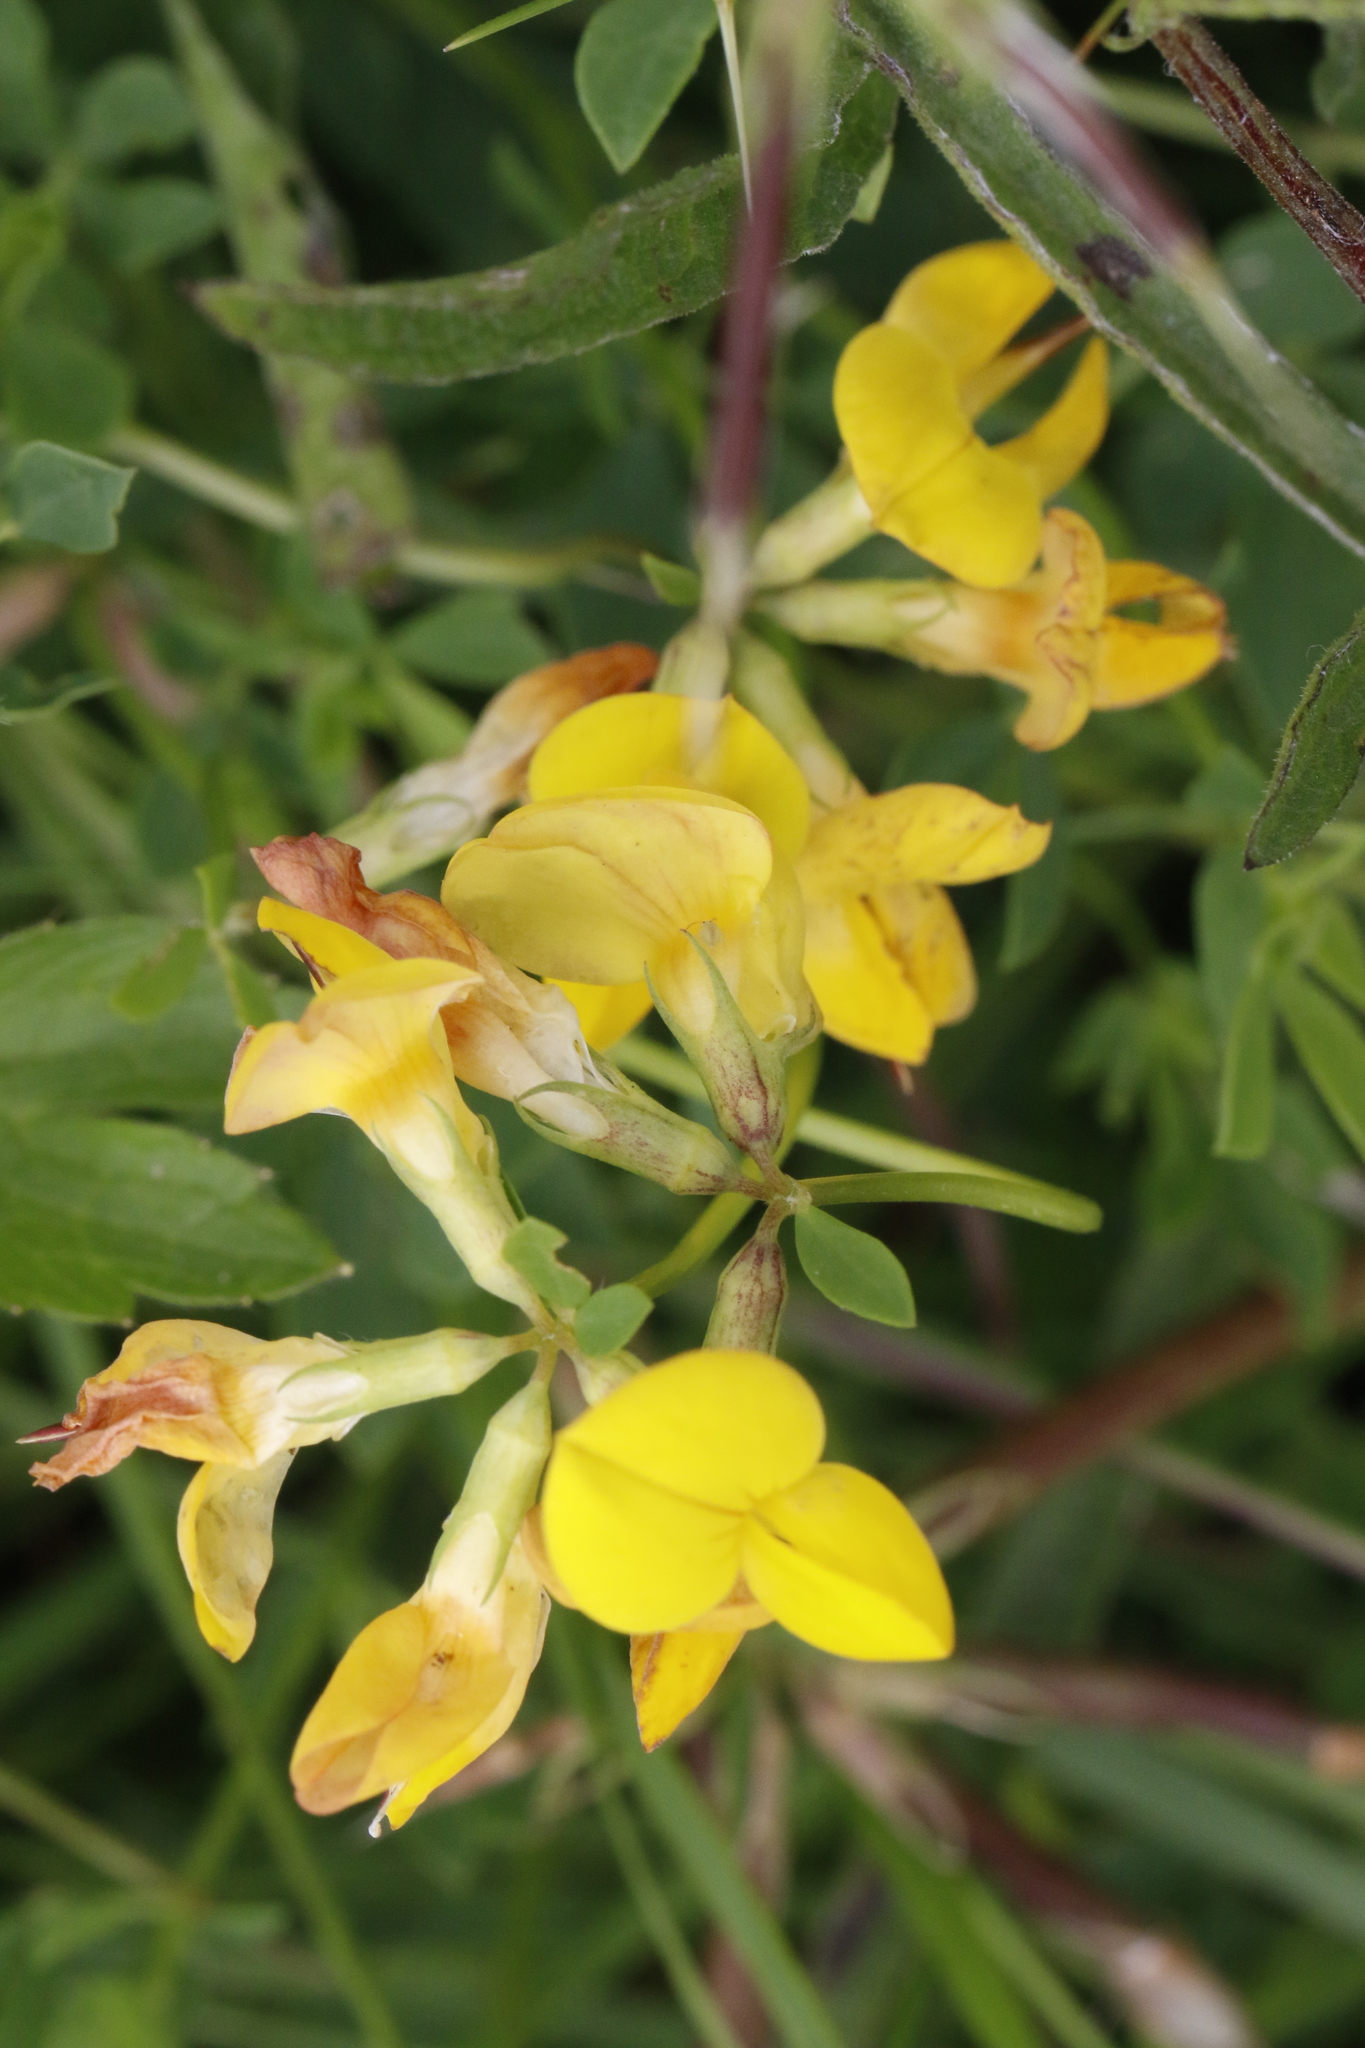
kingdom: Plantae
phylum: Tracheophyta
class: Magnoliopsida
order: Fabales
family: Fabaceae
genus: Lotus
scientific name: Lotus corniculatus
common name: Common bird's-foot-trefoil
